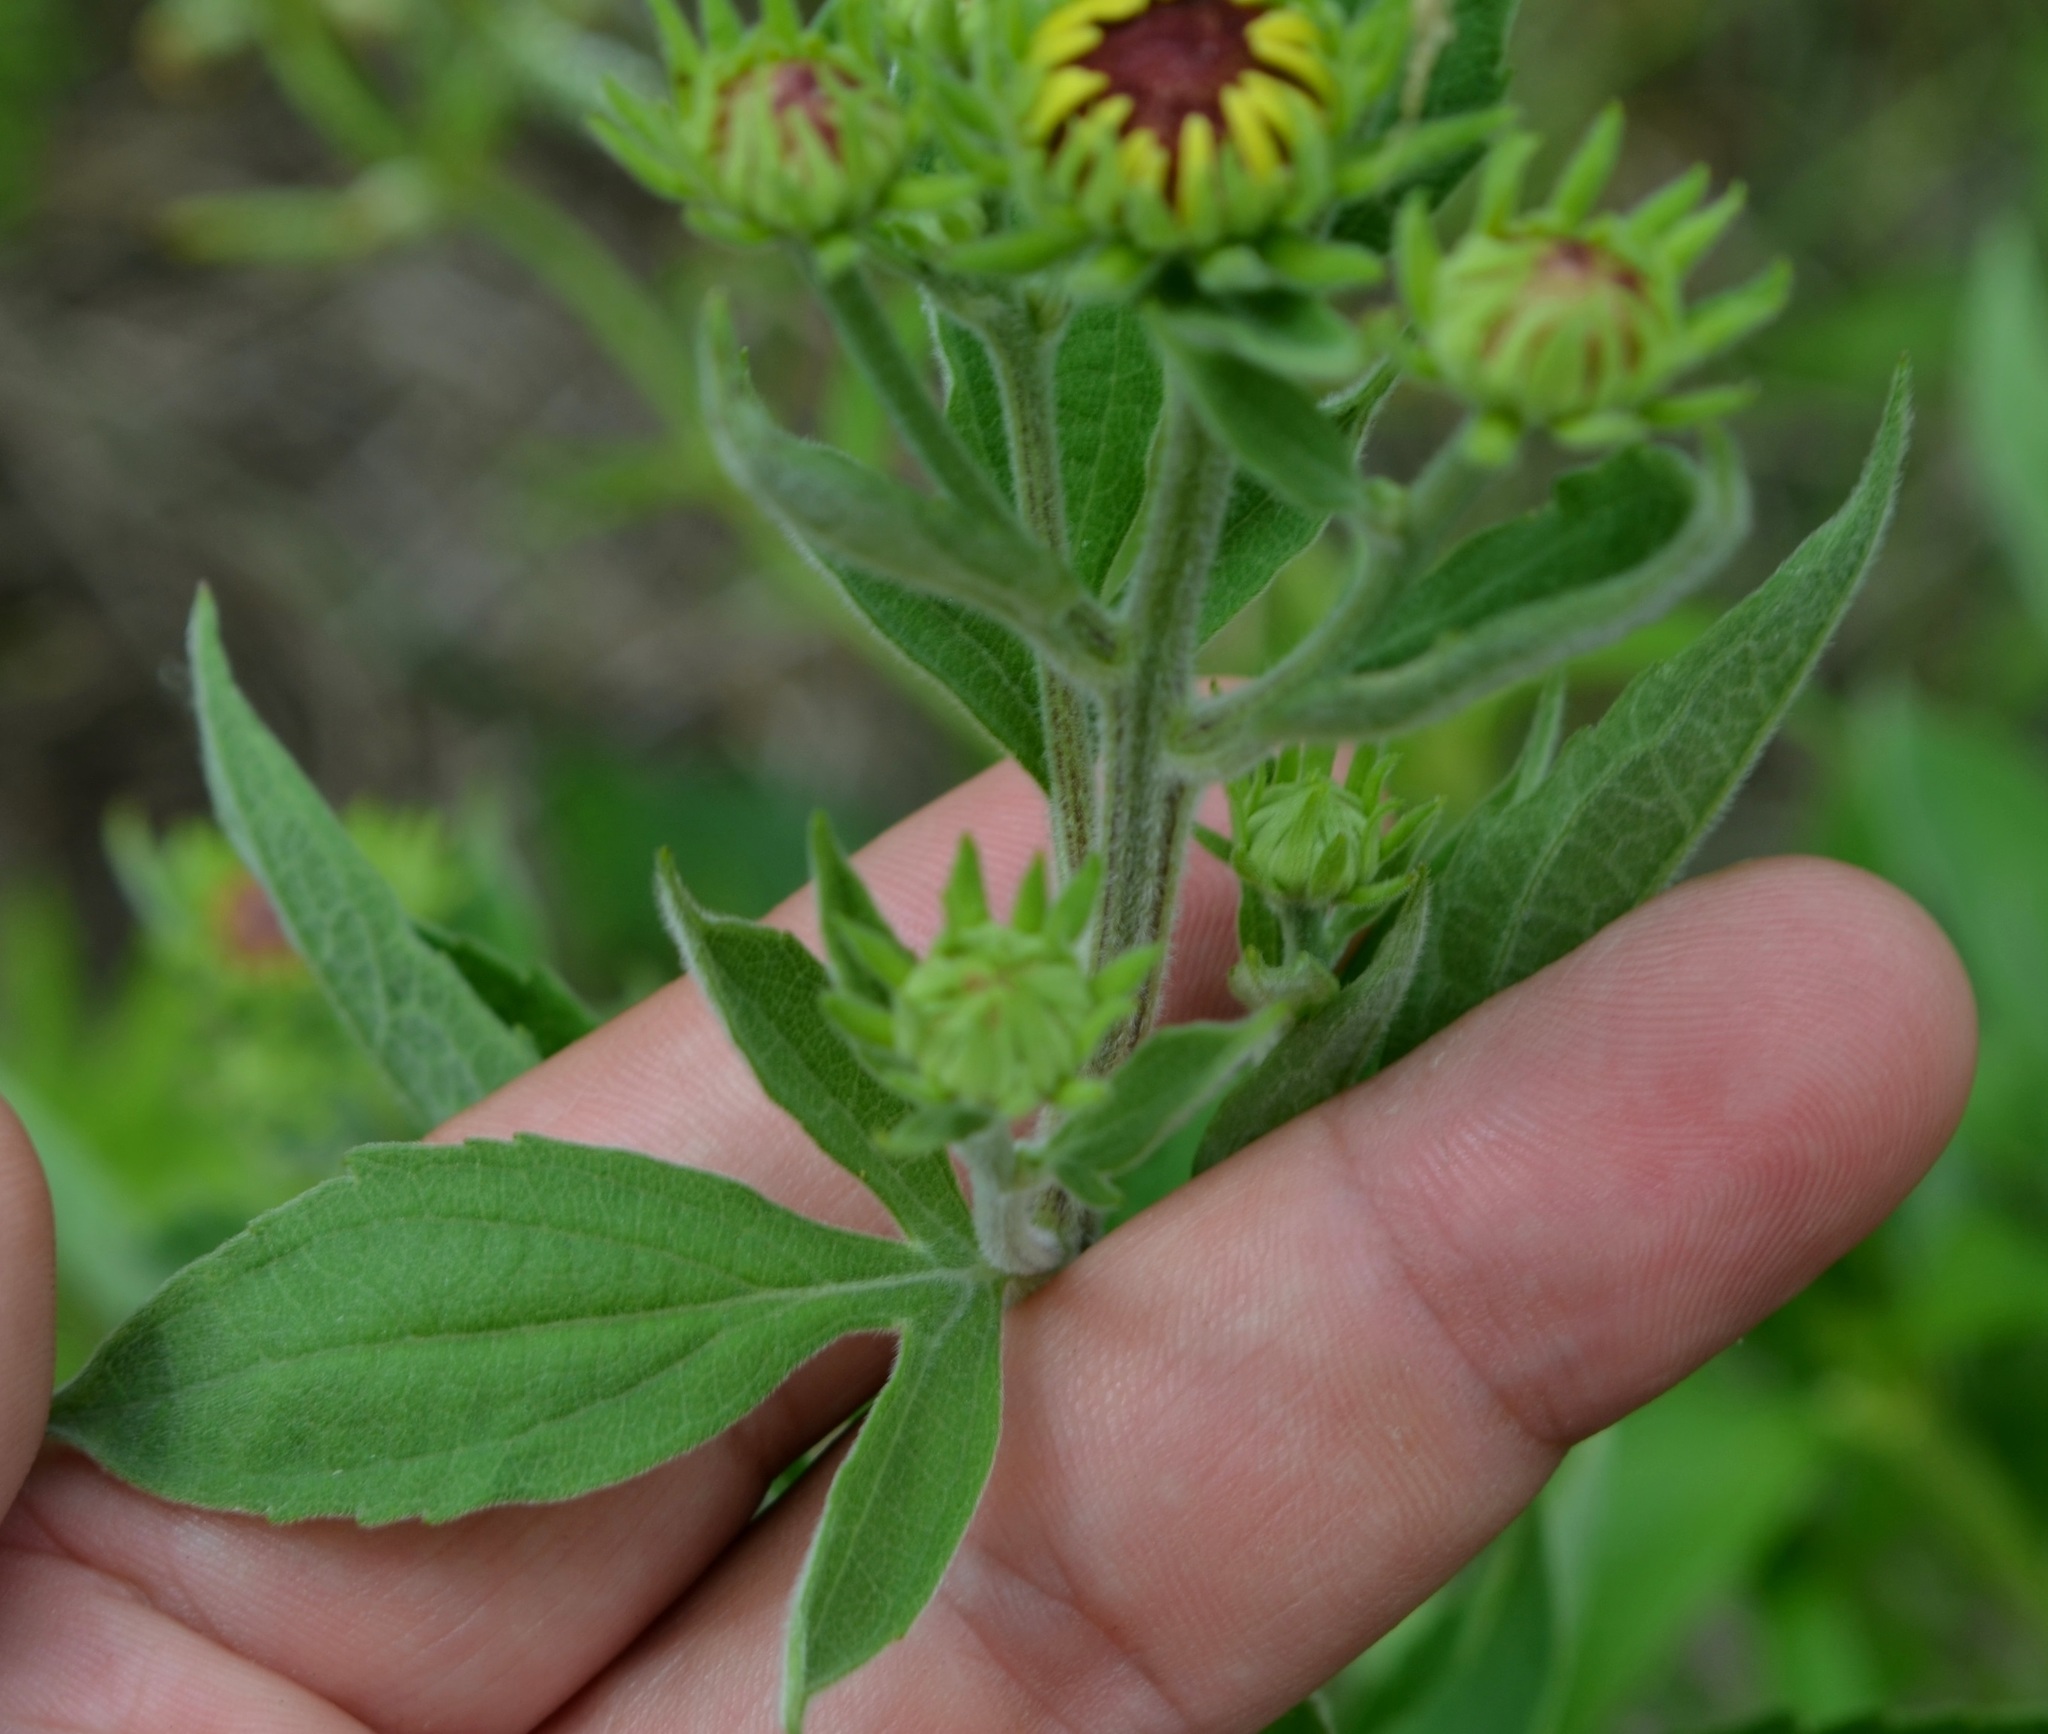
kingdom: Plantae
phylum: Tracheophyta
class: Magnoliopsida
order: Asterales
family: Asteraceae
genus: Rudbeckia
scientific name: Rudbeckia subtomentosa
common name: Sweet coneflower
